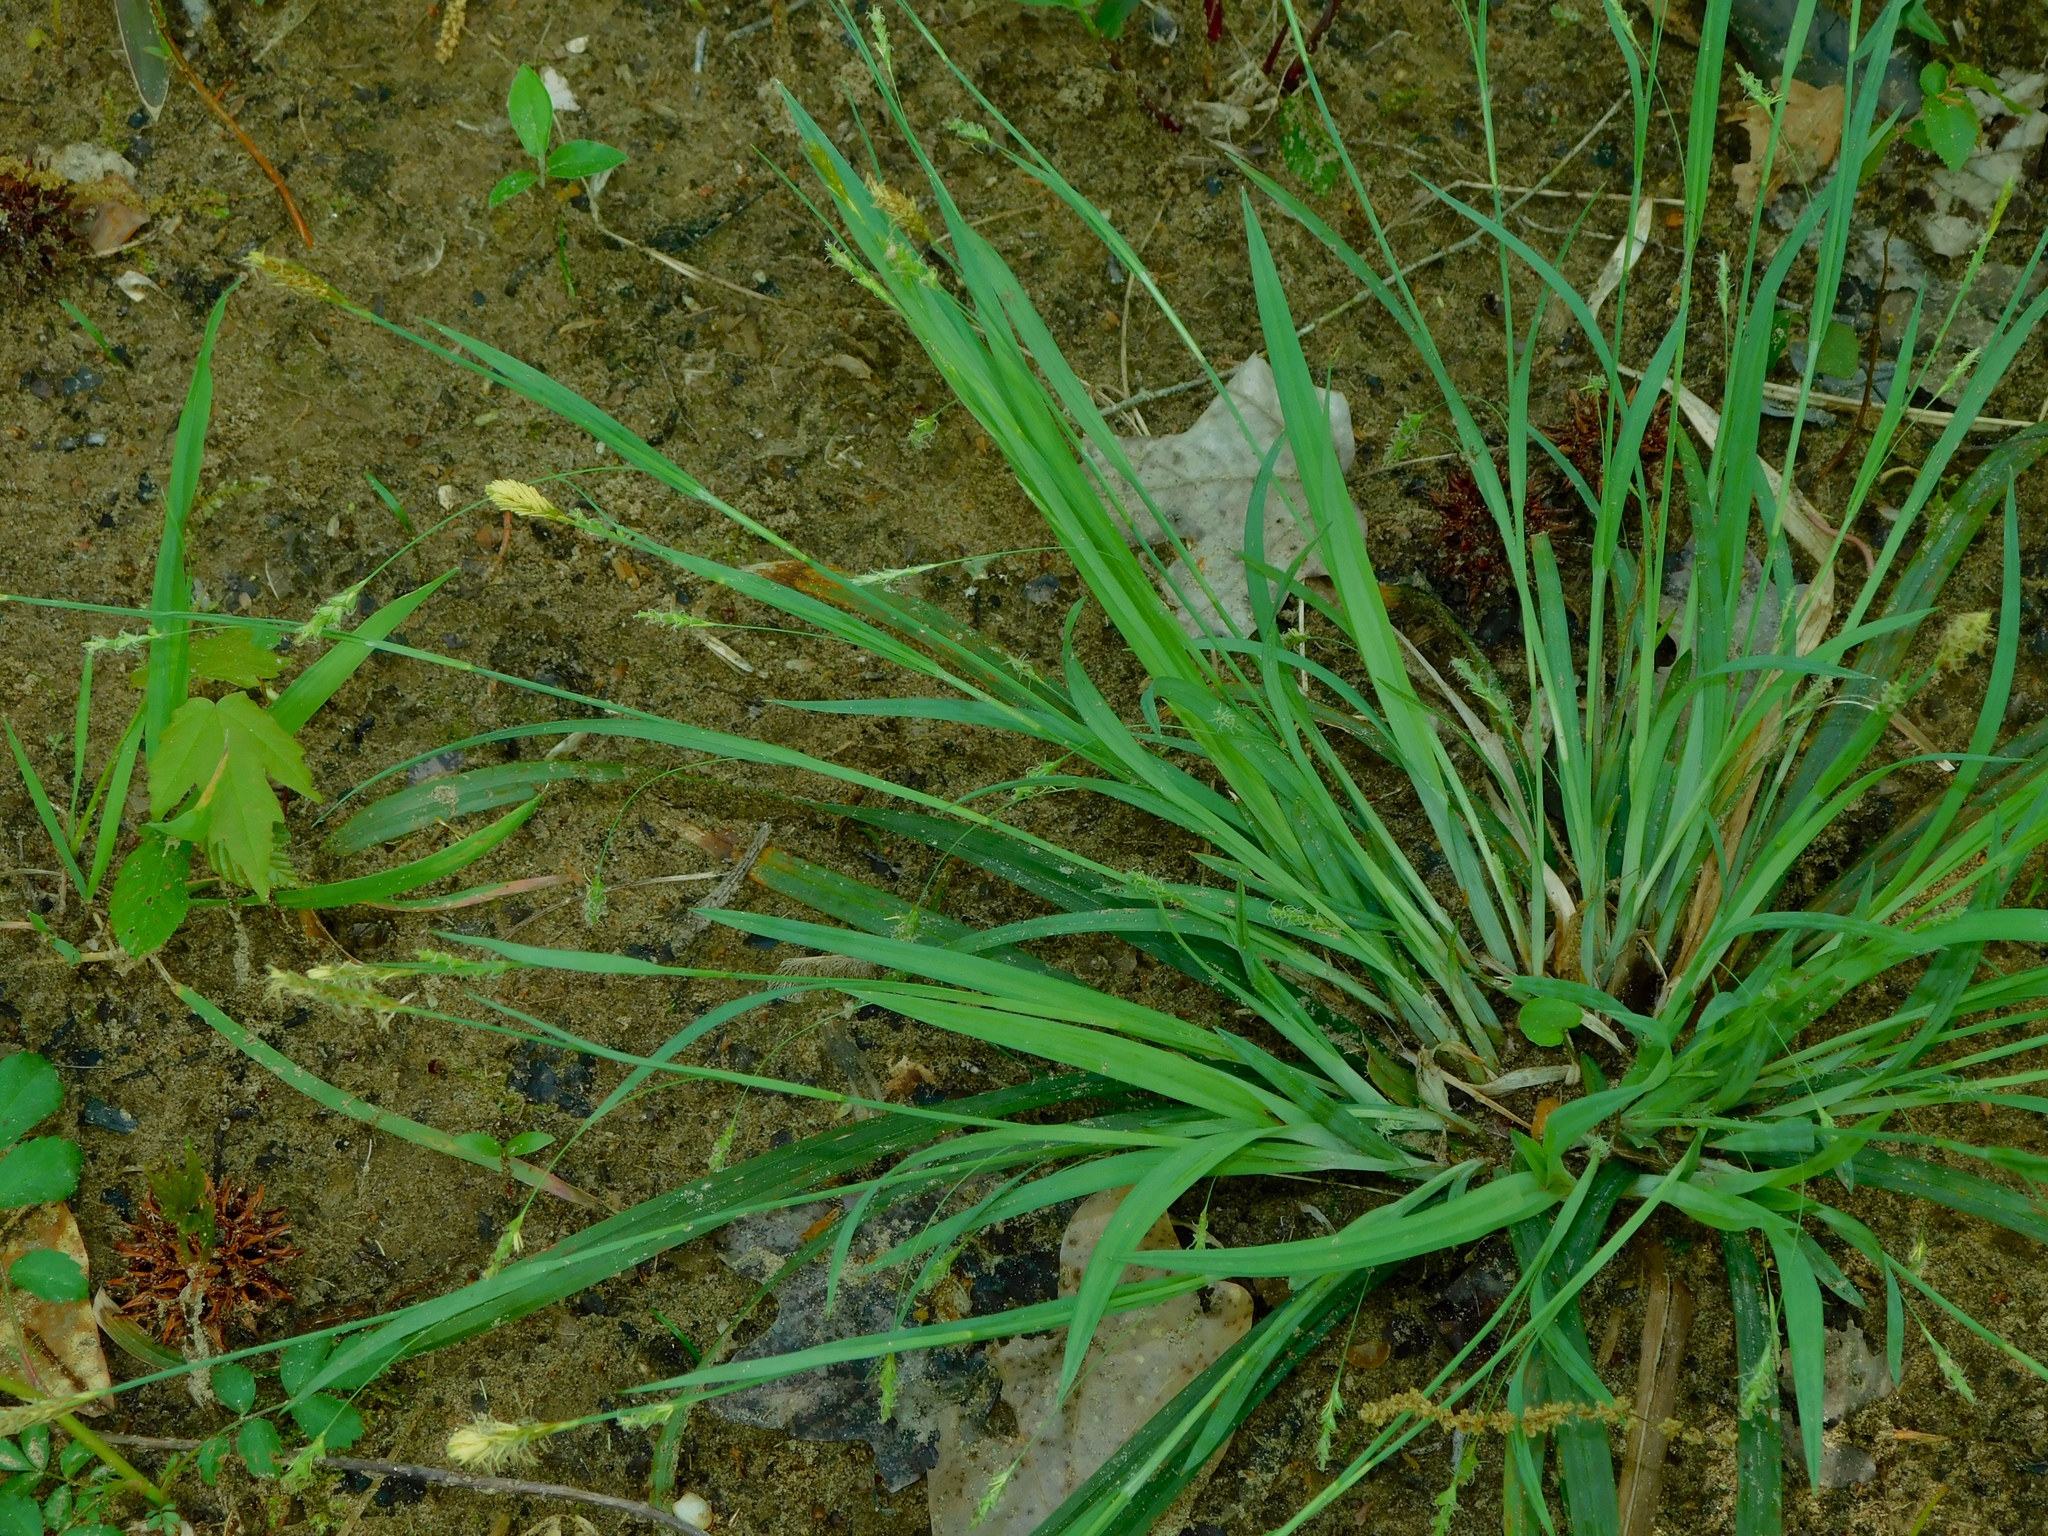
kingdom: Plantae
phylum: Tracheophyta
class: Liliopsida
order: Poales
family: Cyperaceae
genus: Carex
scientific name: Carex laxiculmis
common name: Spreading sedge
